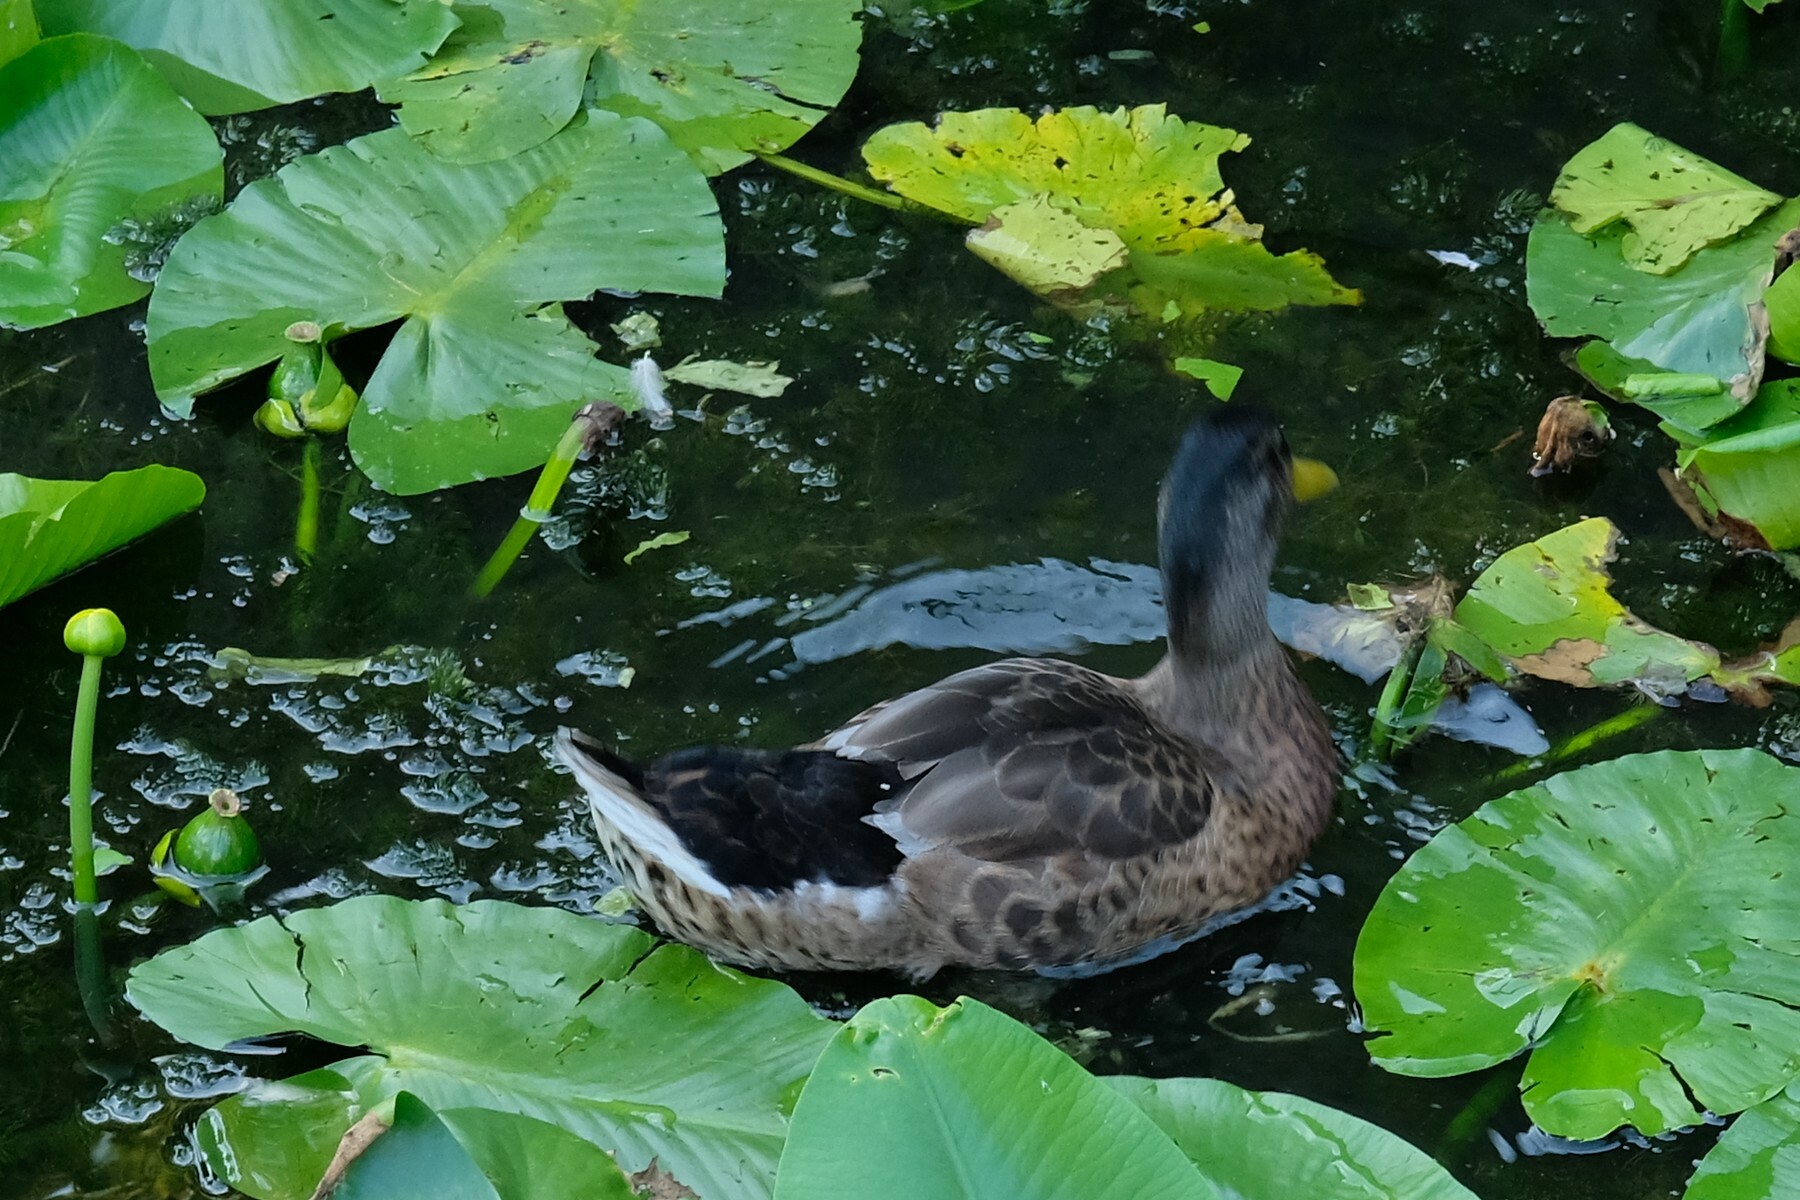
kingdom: Animalia
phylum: Chordata
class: Aves
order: Anseriformes
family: Anatidae
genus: Anas
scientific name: Anas platyrhynchos
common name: Mallard
